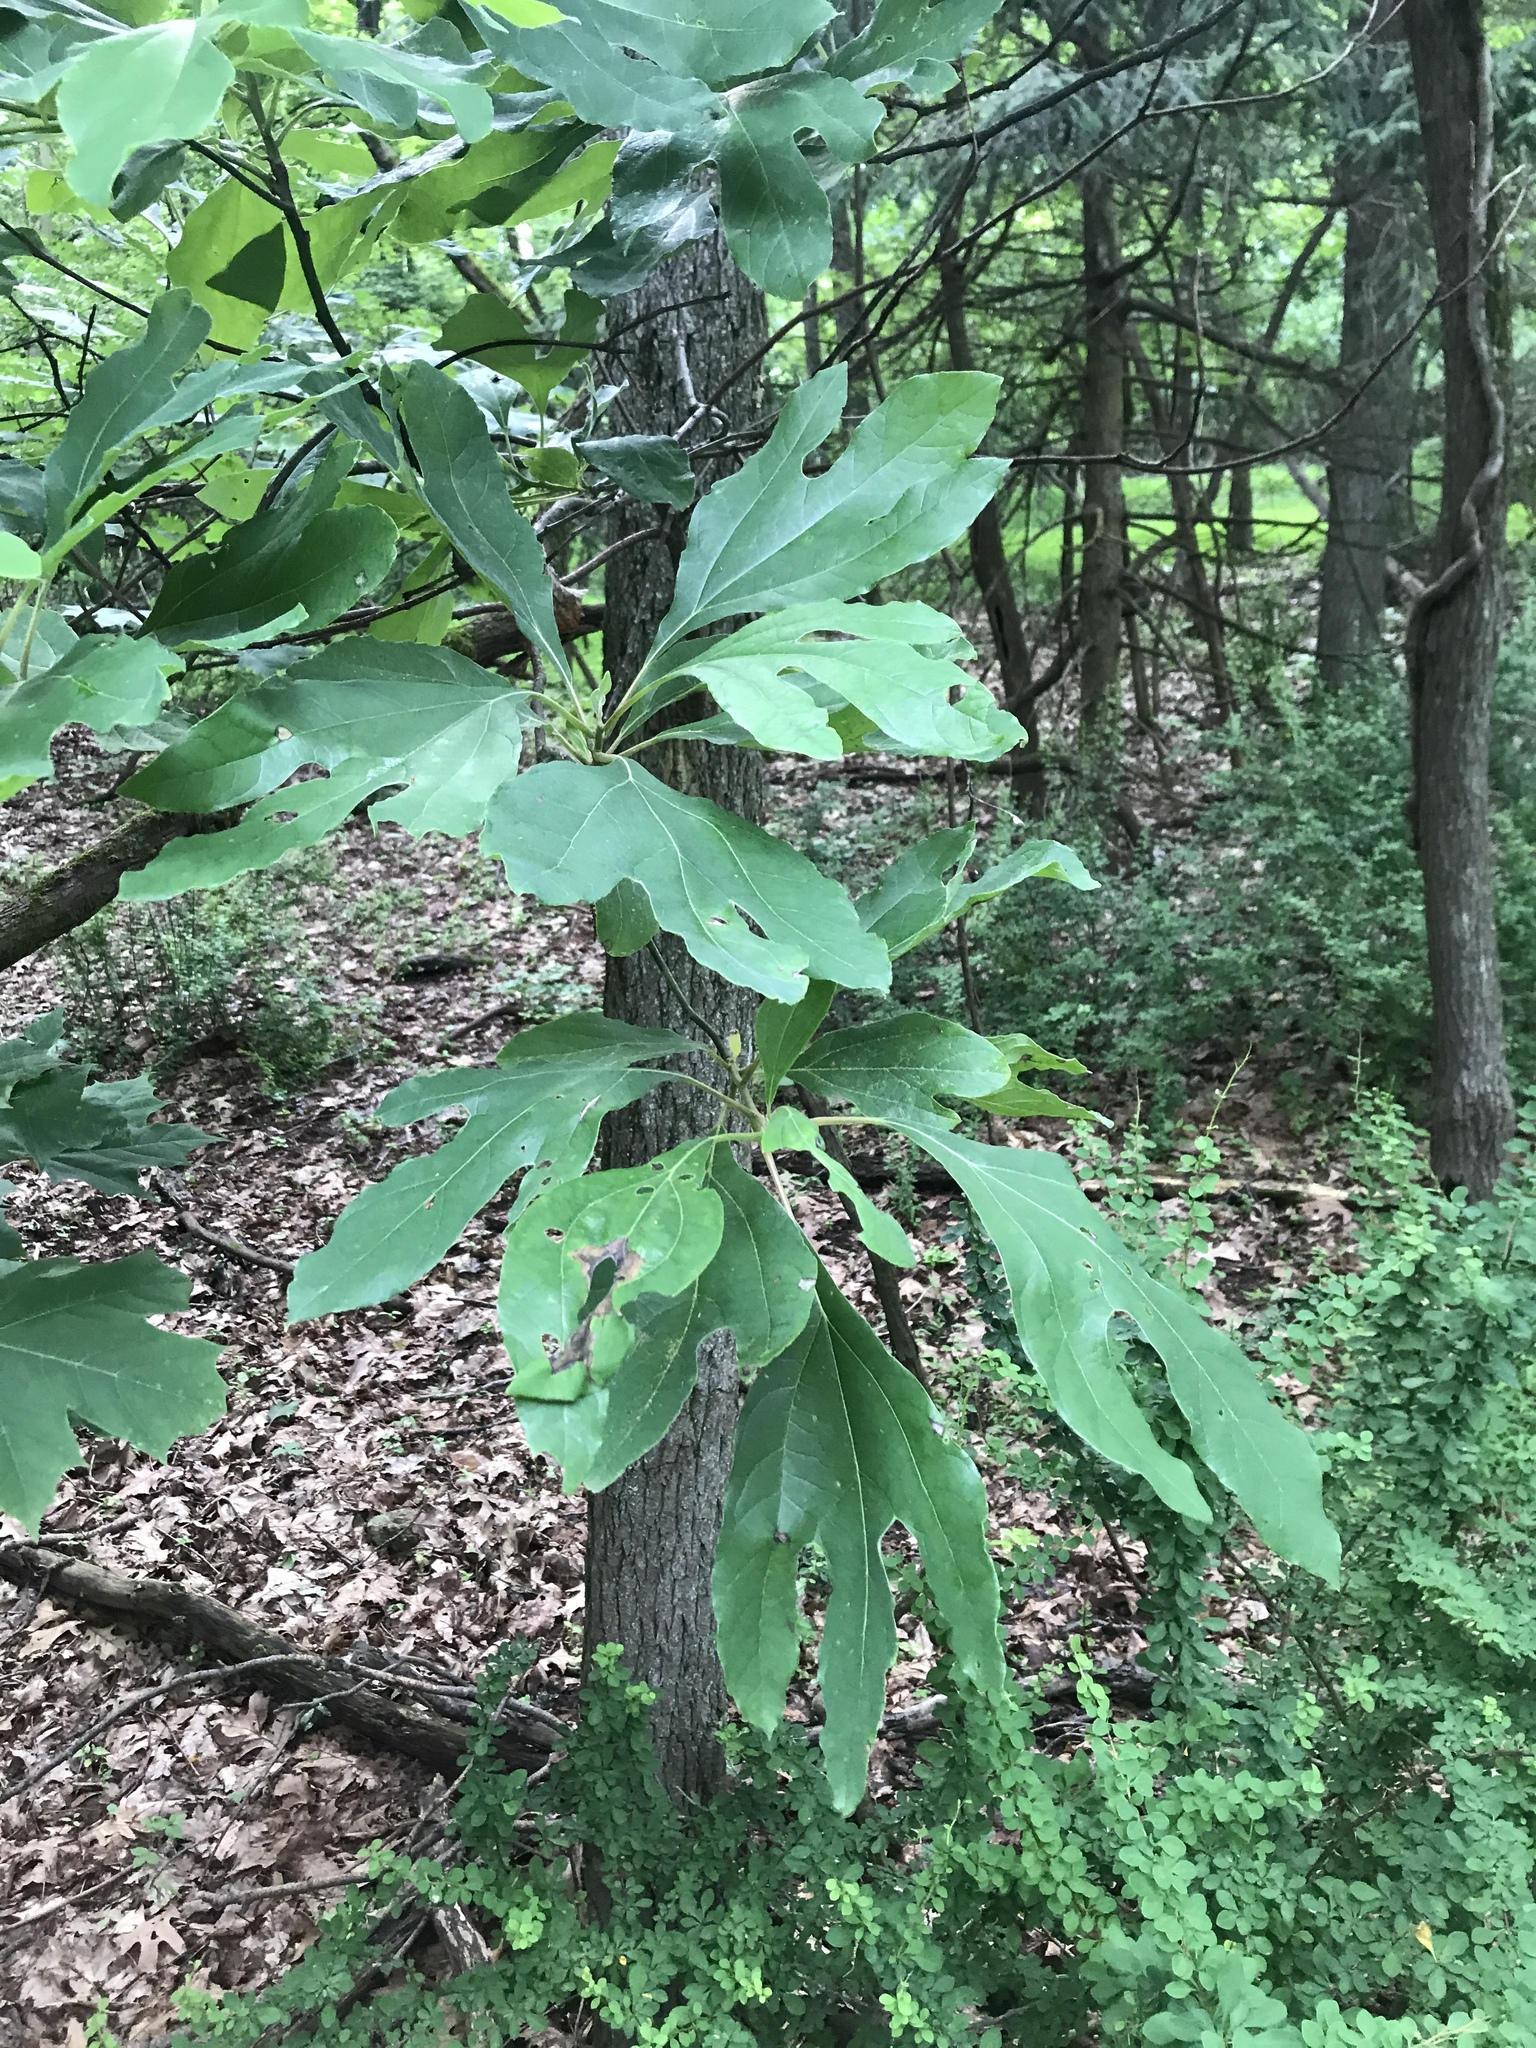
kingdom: Plantae
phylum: Tracheophyta
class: Magnoliopsida
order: Laurales
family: Lauraceae
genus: Sassafras
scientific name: Sassafras albidum
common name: Sassafras
